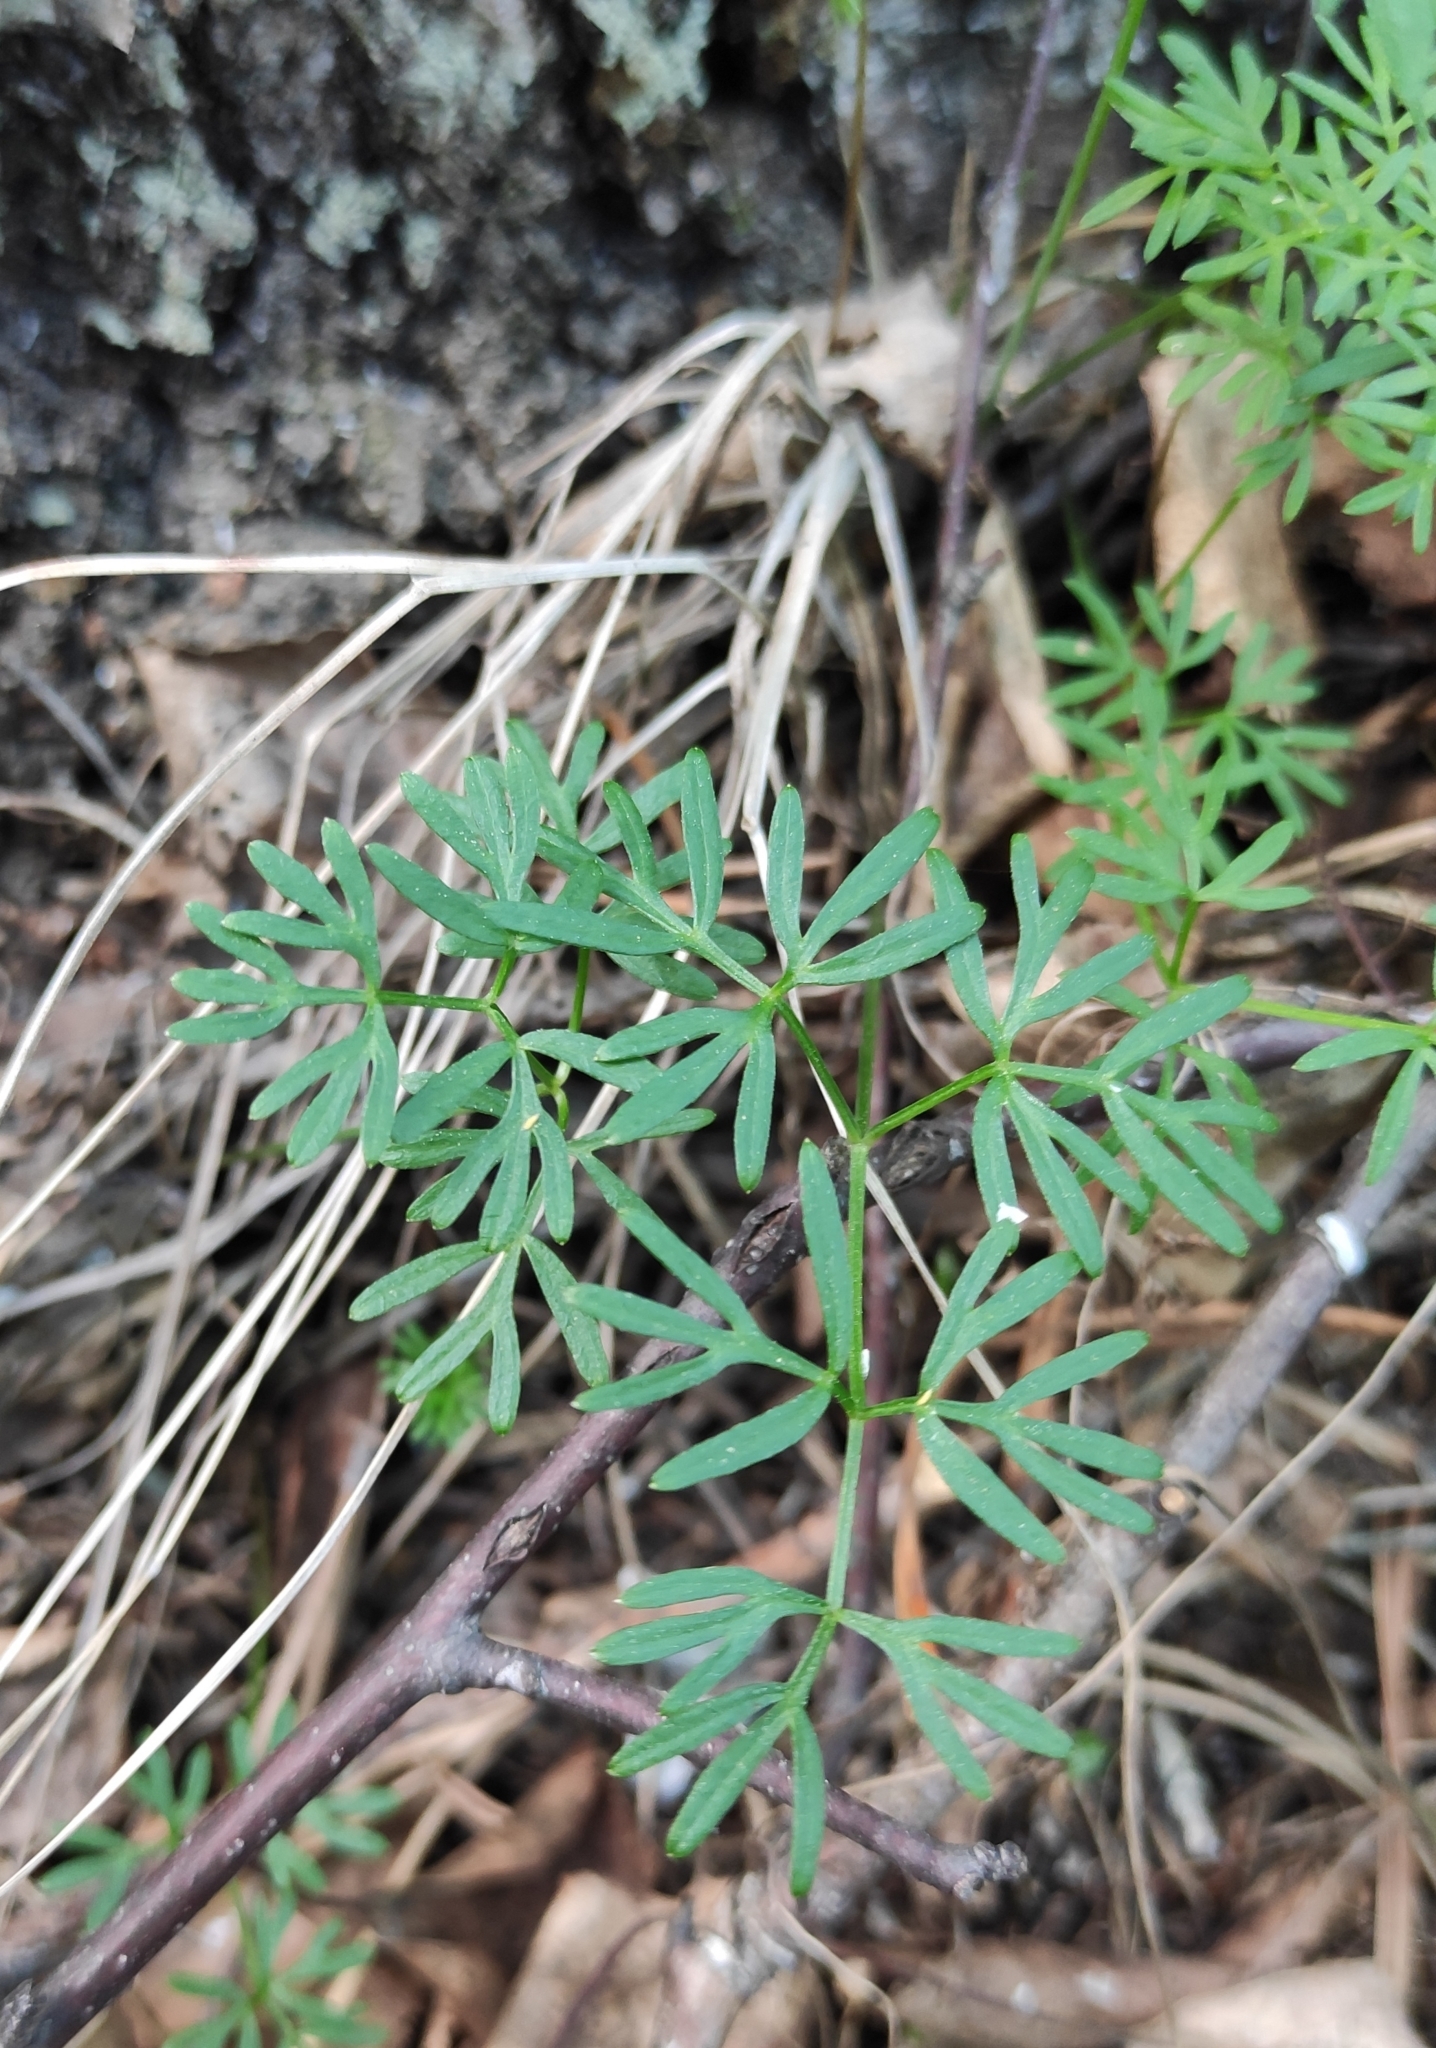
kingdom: Plantae
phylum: Tracheophyta
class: Magnoliopsida
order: Apiales
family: Apiaceae
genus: Ostericum
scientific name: Ostericum tenuifolium
